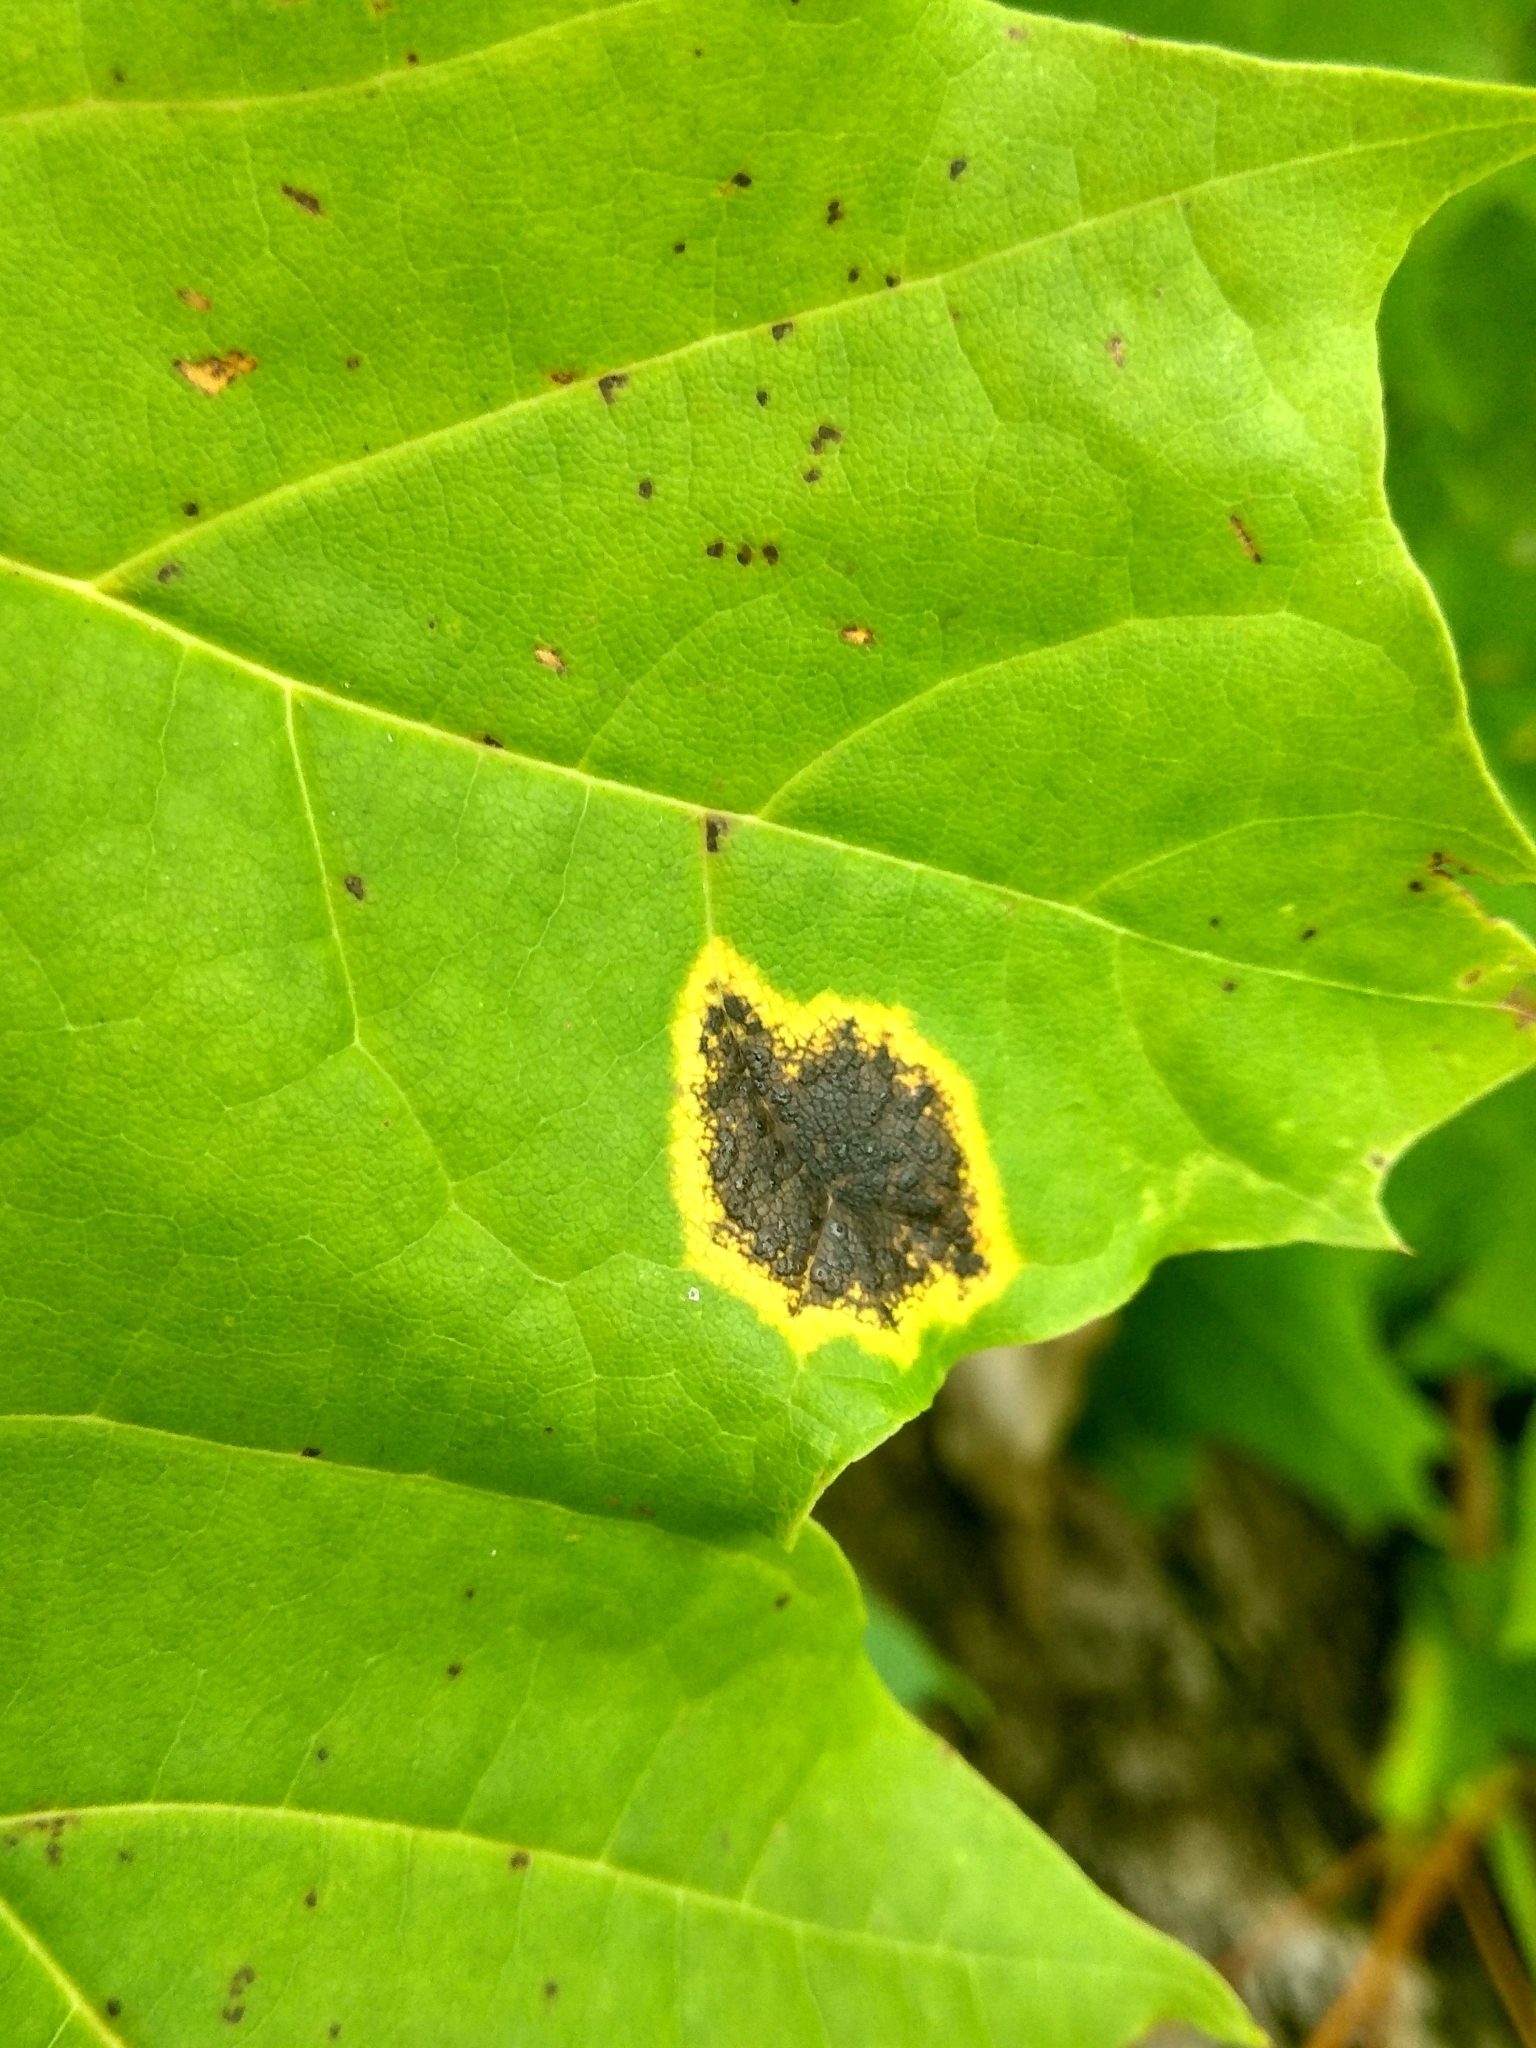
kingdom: Fungi
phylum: Ascomycota
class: Leotiomycetes
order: Rhytismatales
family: Rhytismataceae
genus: Rhytisma
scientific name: Rhytisma acerinum
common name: European tar spot
